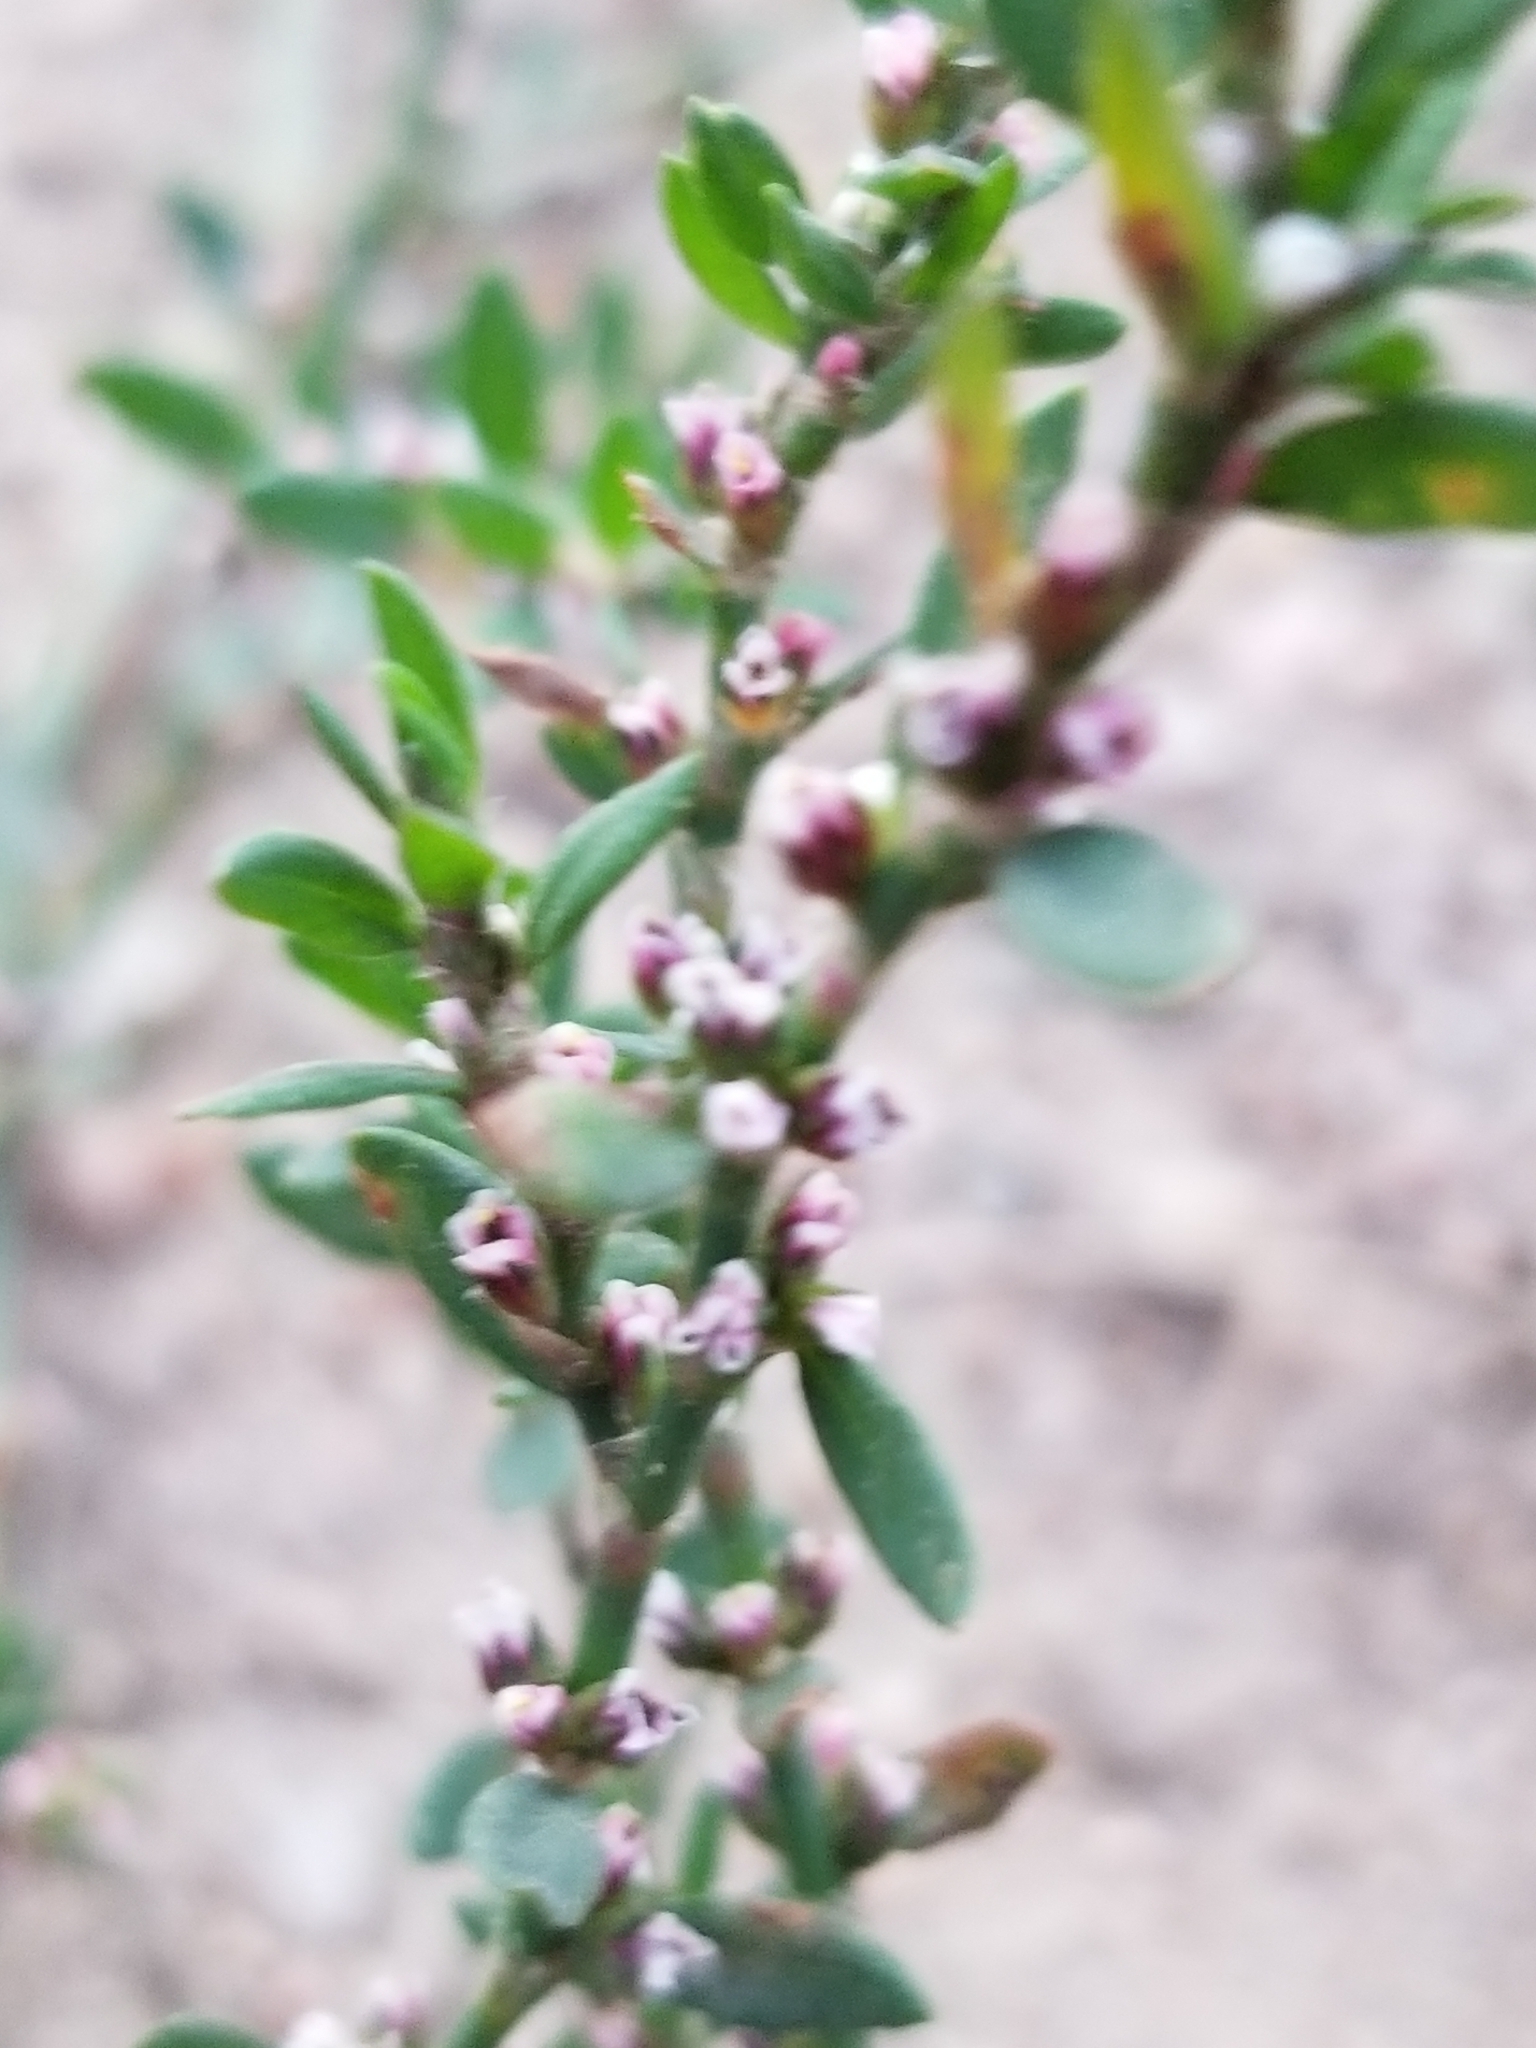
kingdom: Plantae
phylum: Tracheophyta
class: Magnoliopsida
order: Caryophyllales
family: Polygonaceae
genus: Polygonum
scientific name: Polygonum aviculare
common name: Prostrate knotweed
